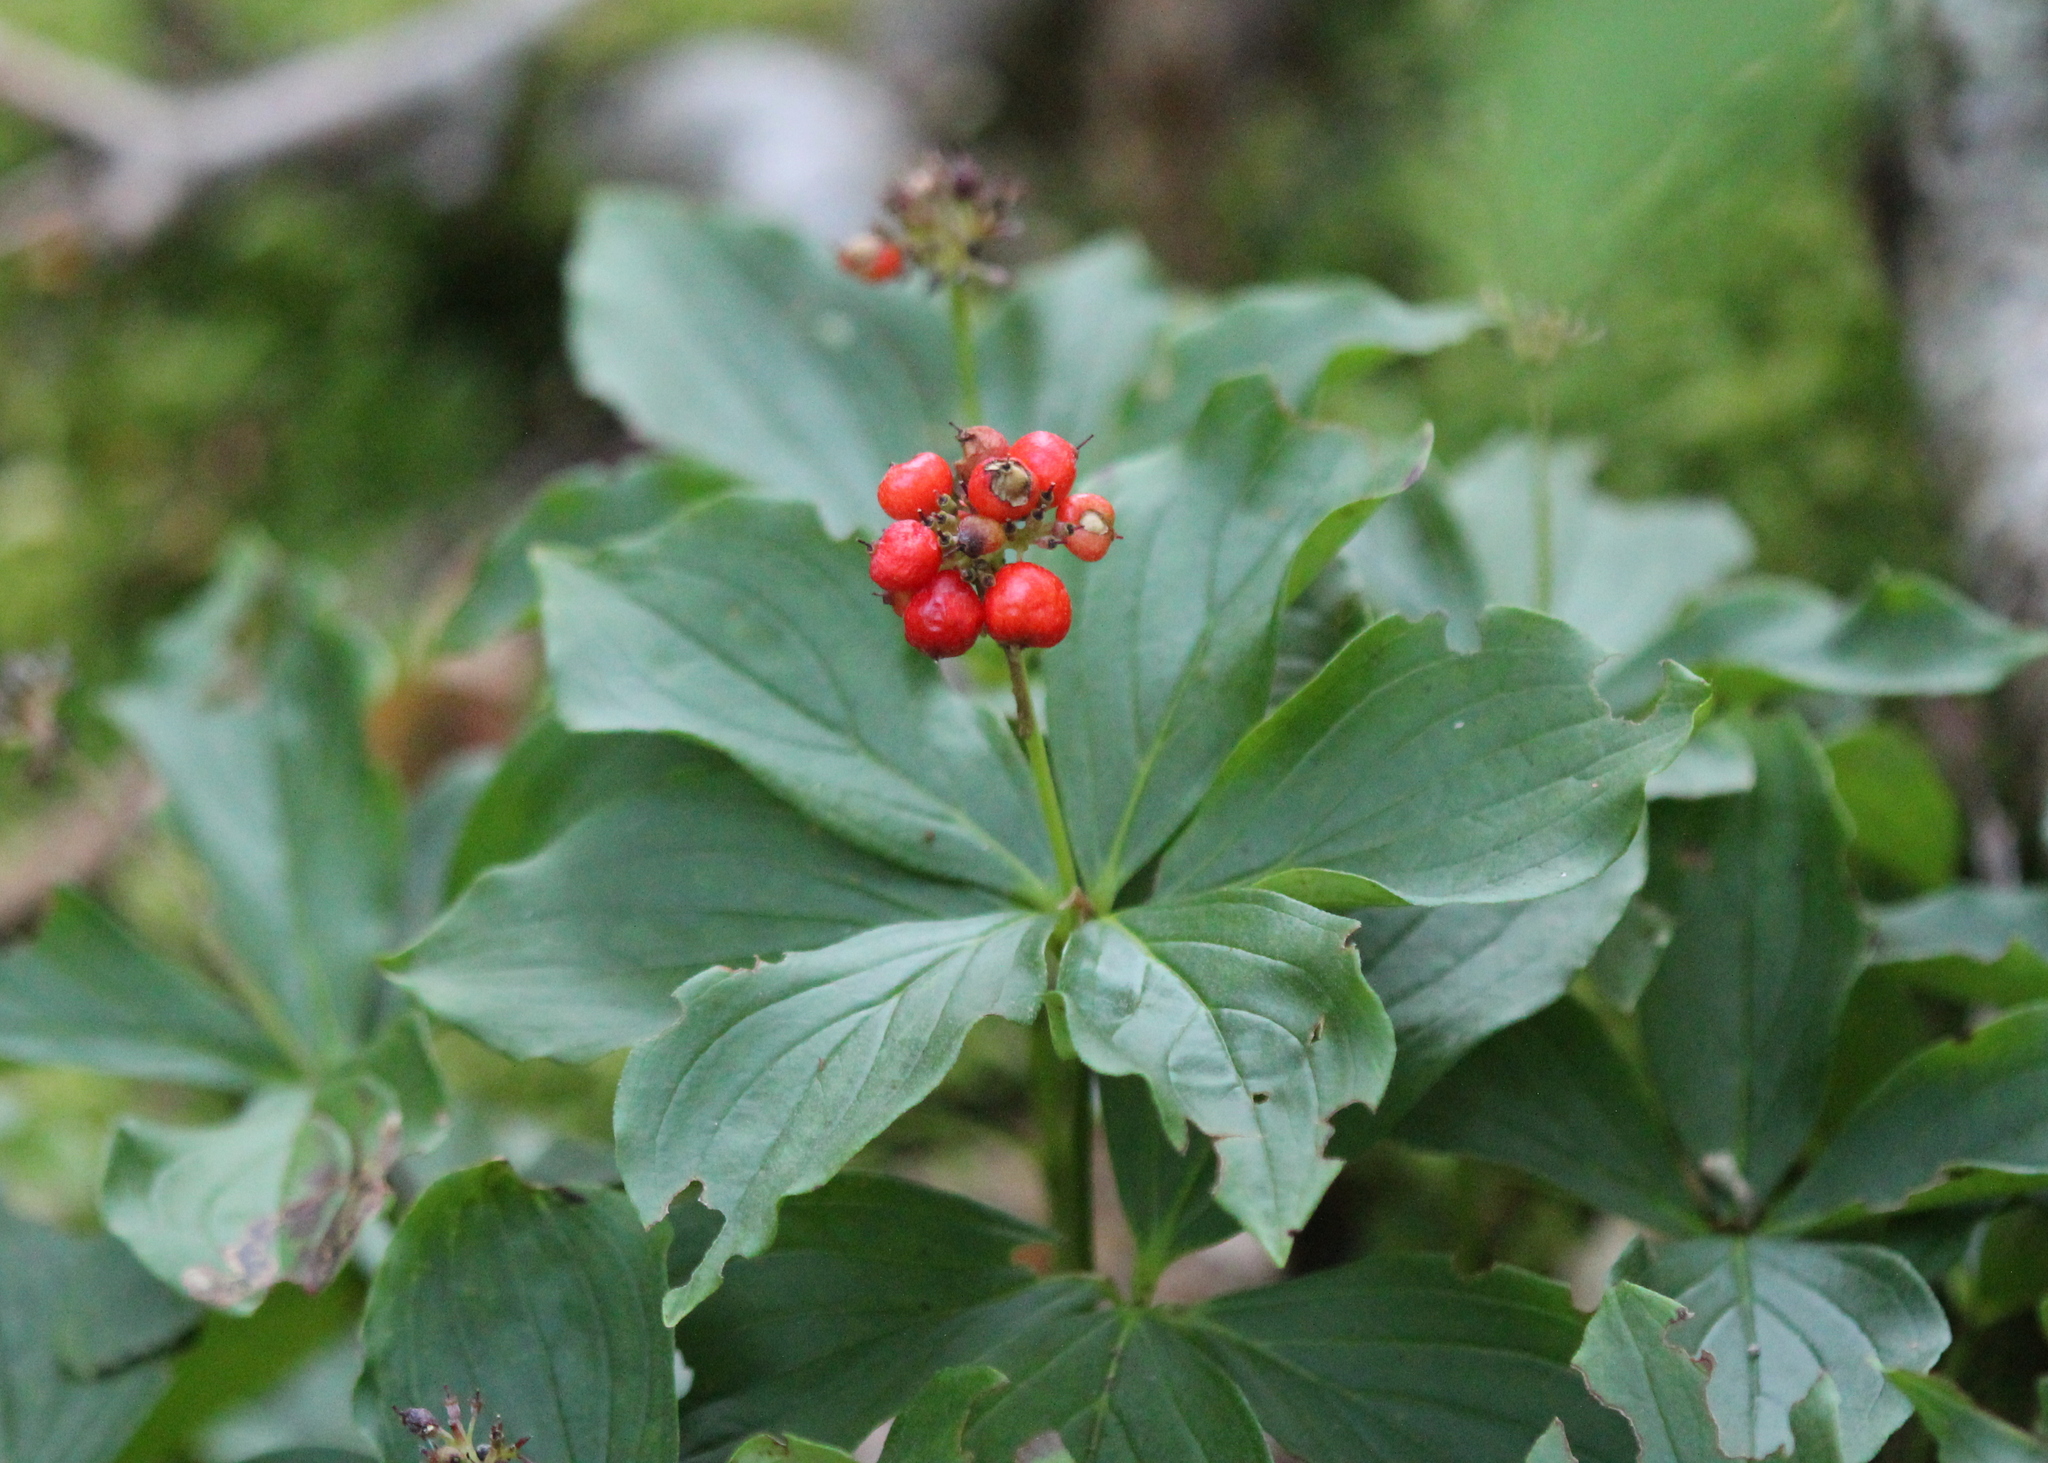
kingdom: Plantae
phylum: Tracheophyta
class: Magnoliopsida
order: Cornales
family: Cornaceae
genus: Cornus
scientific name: Cornus canadensis
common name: Creeping dogwood
